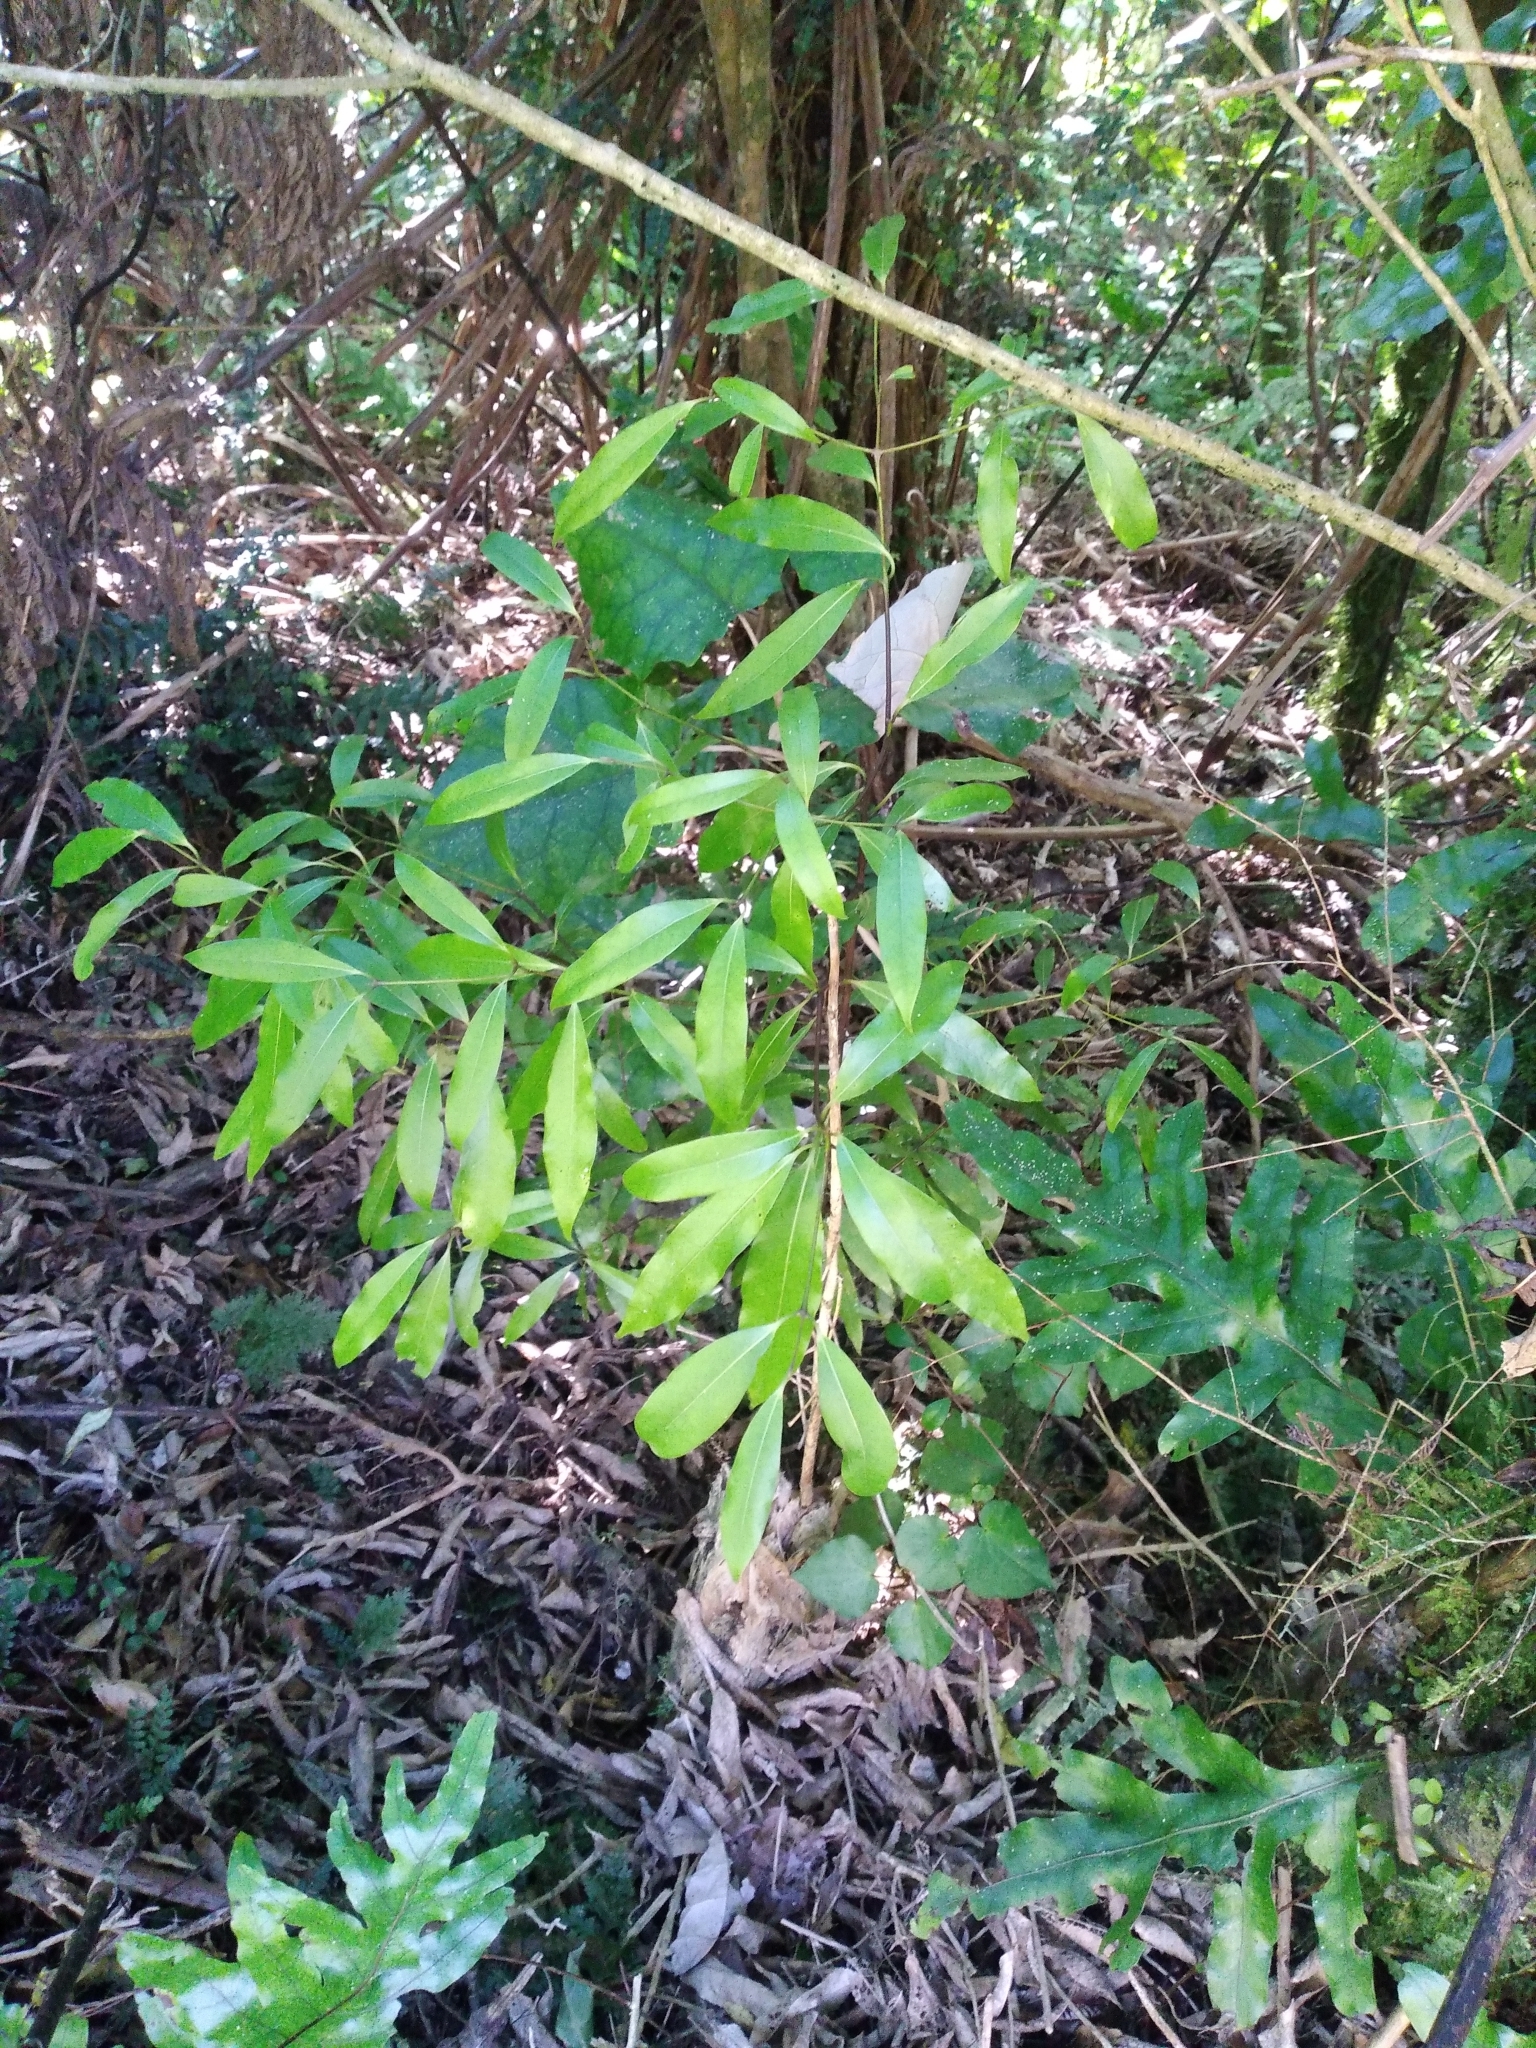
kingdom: Plantae
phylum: Tracheophyta
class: Magnoliopsida
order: Laurales
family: Lauraceae
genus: Beilschmiedia
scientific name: Beilschmiedia tawa
